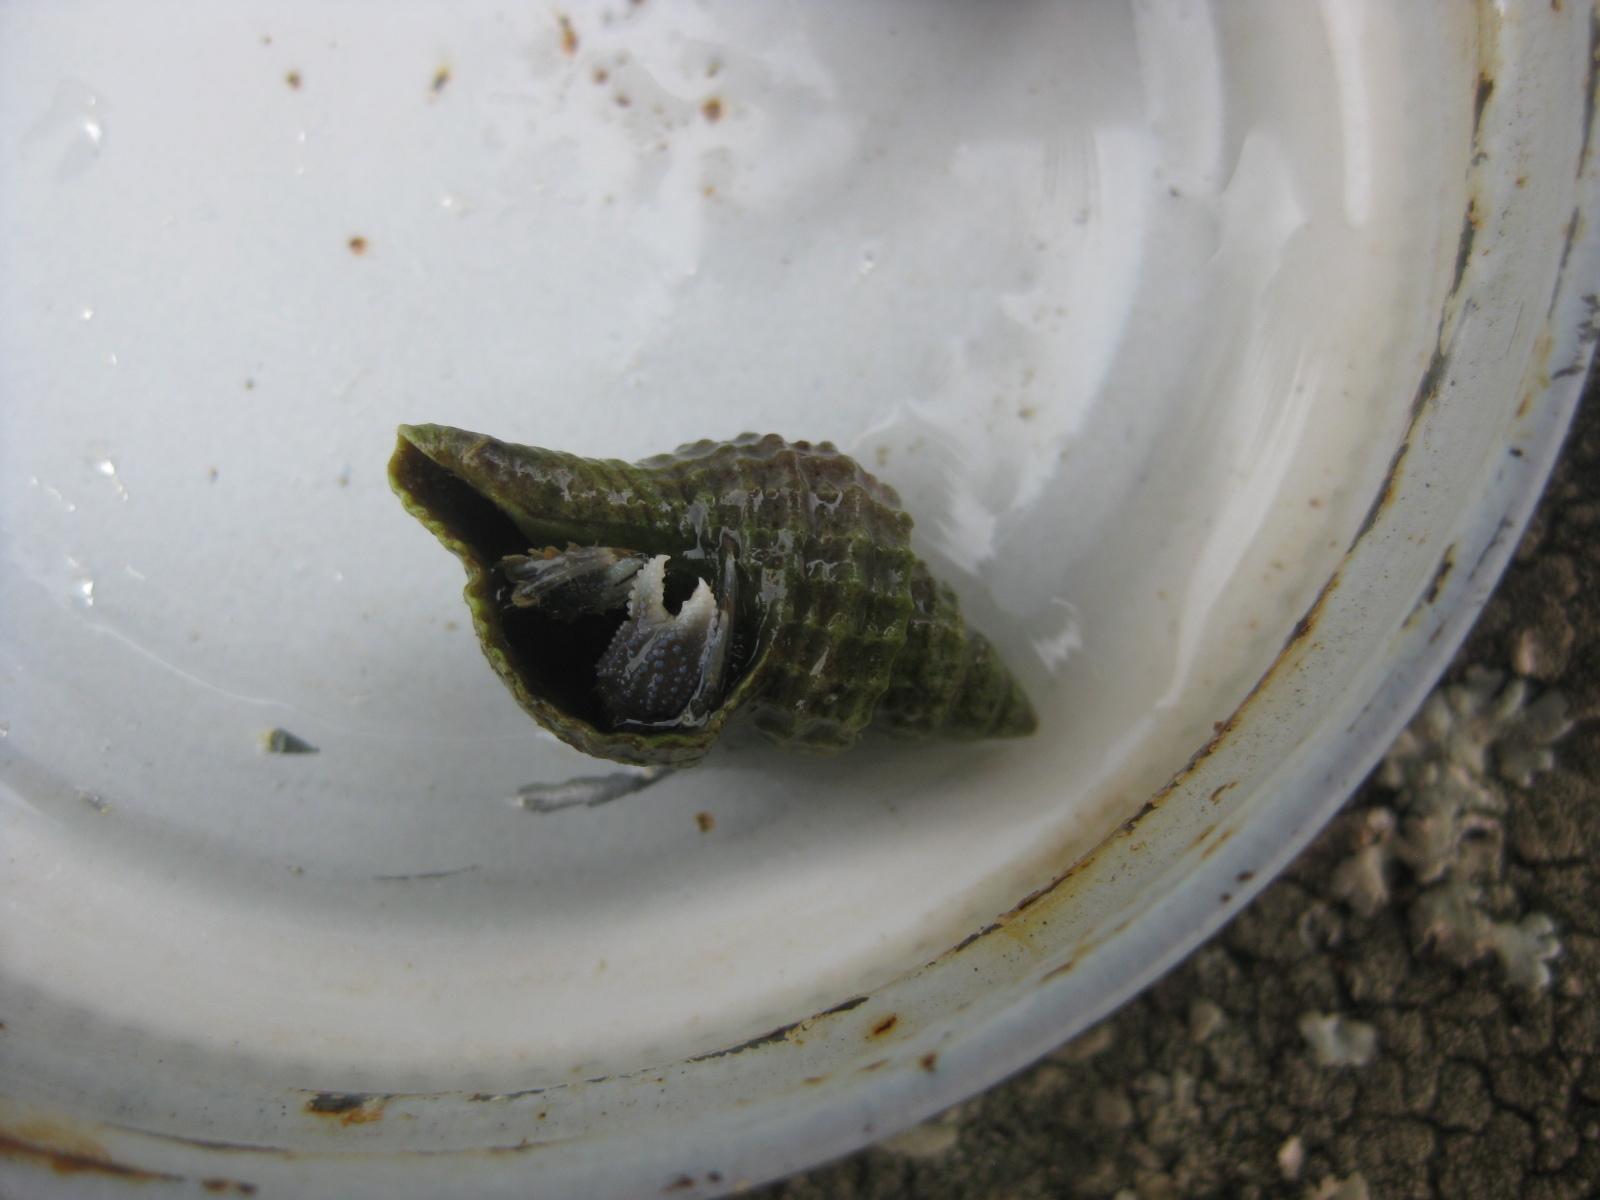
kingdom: Animalia
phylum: Mollusca
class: Gastropoda
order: Neogastropoda
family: Muricidae
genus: Zeatrophon
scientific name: Zeatrophon ambiguus
